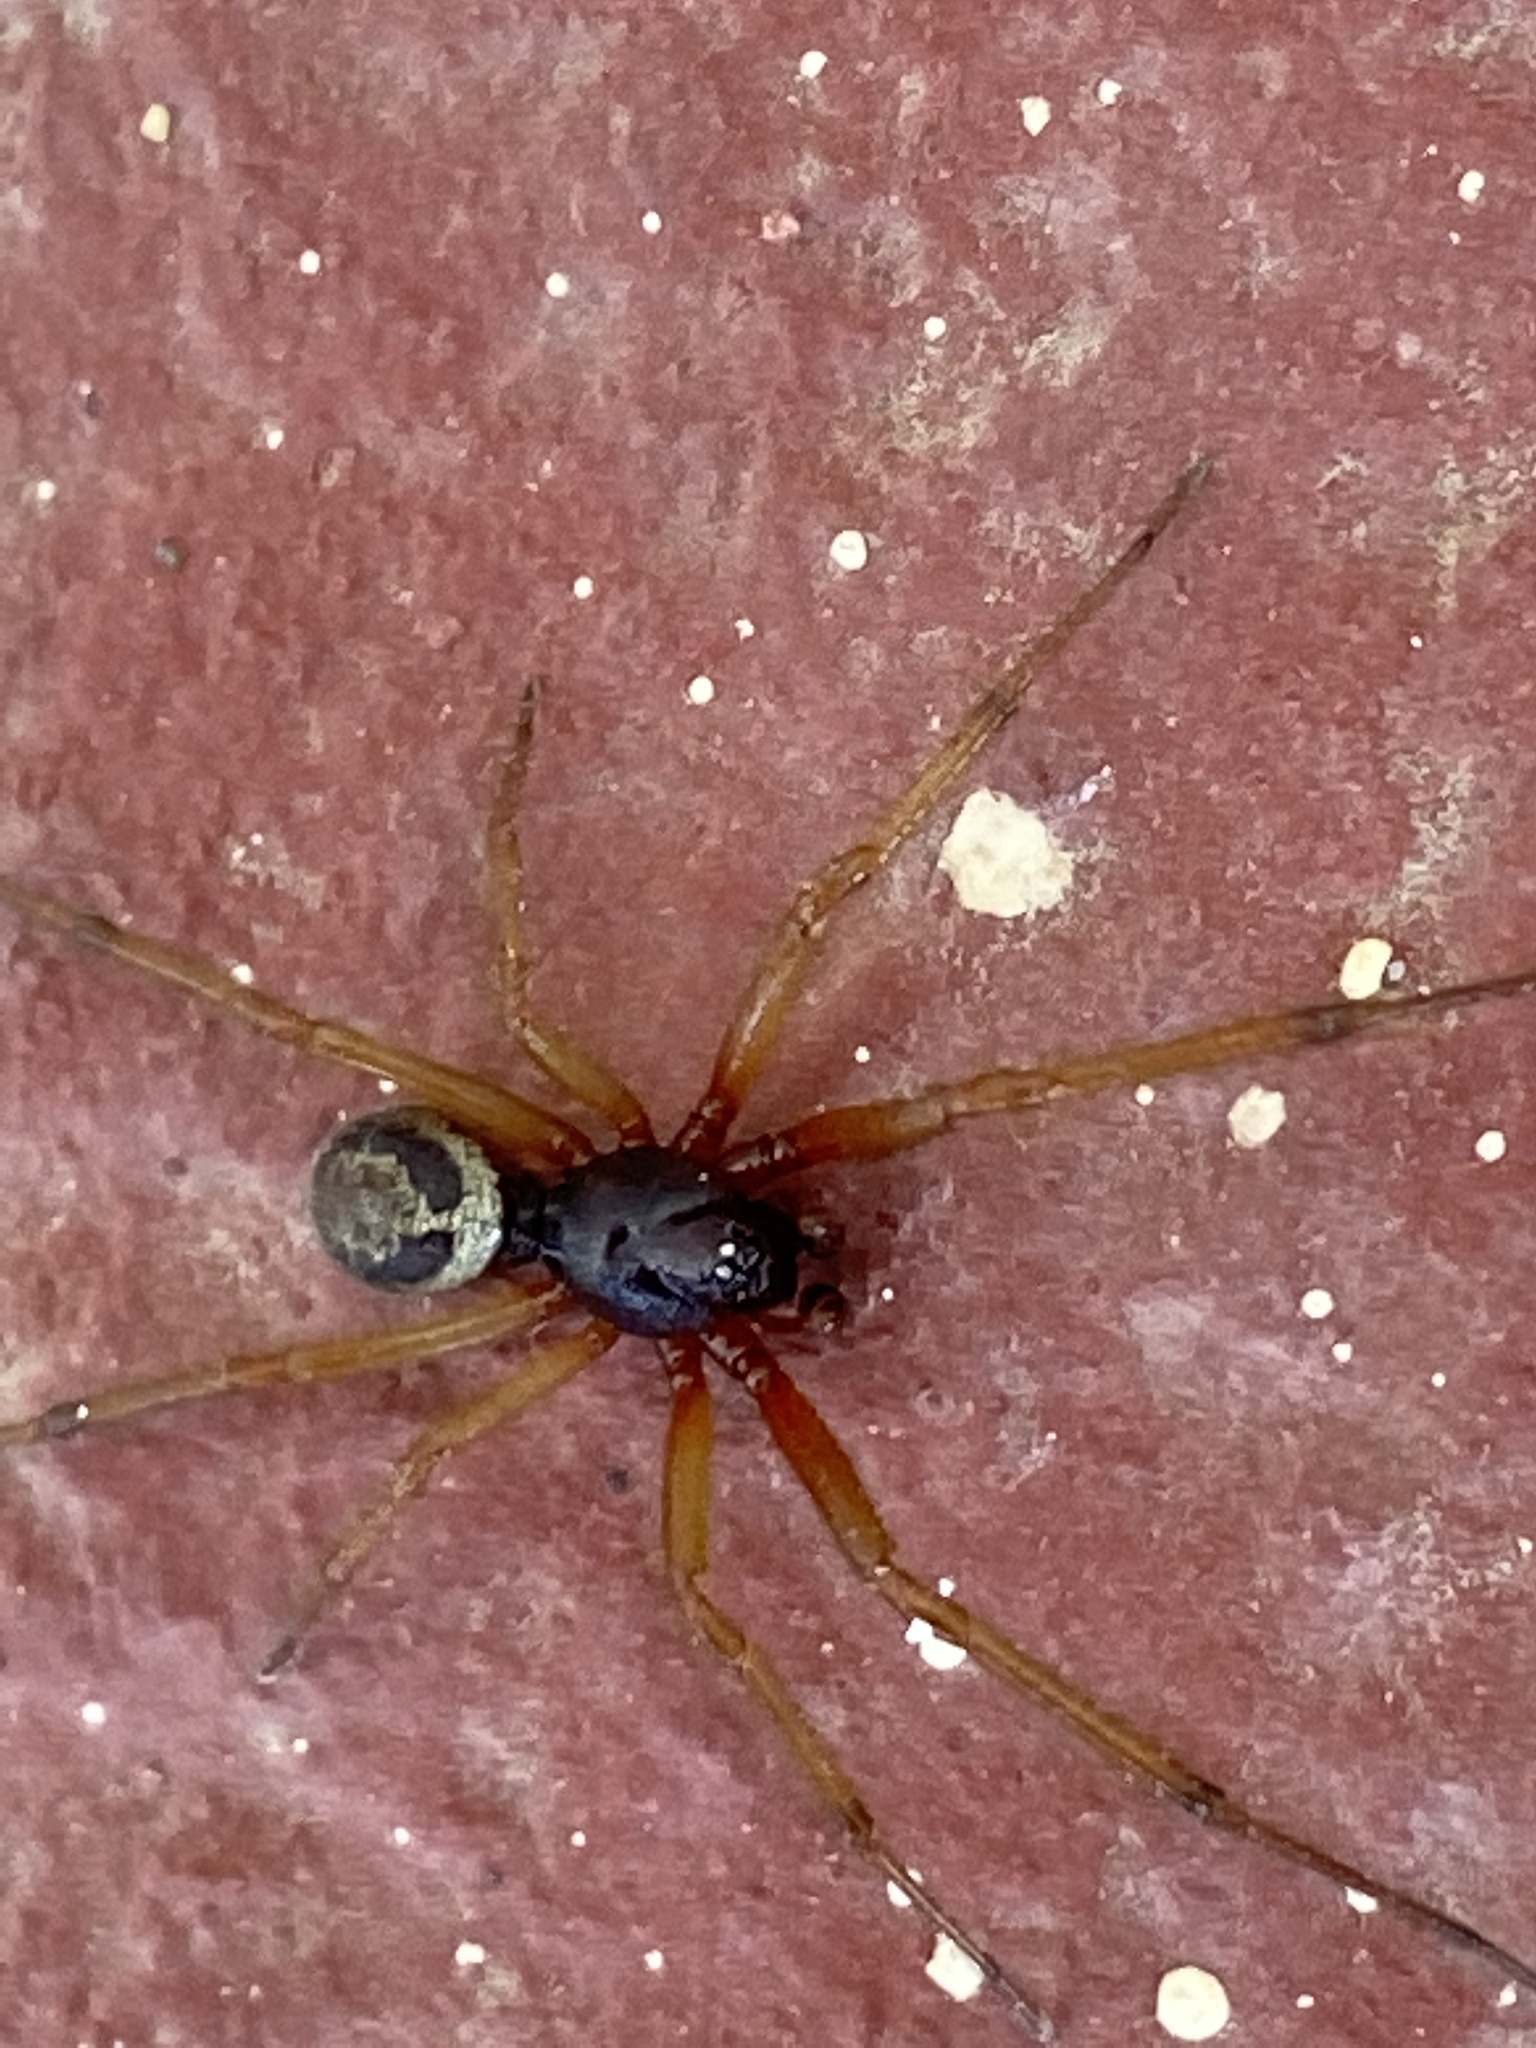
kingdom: Animalia
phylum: Arthropoda
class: Arachnida
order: Araneae
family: Theridiidae
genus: Steatoda
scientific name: Steatoda nobilis
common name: Cobweb weaver
